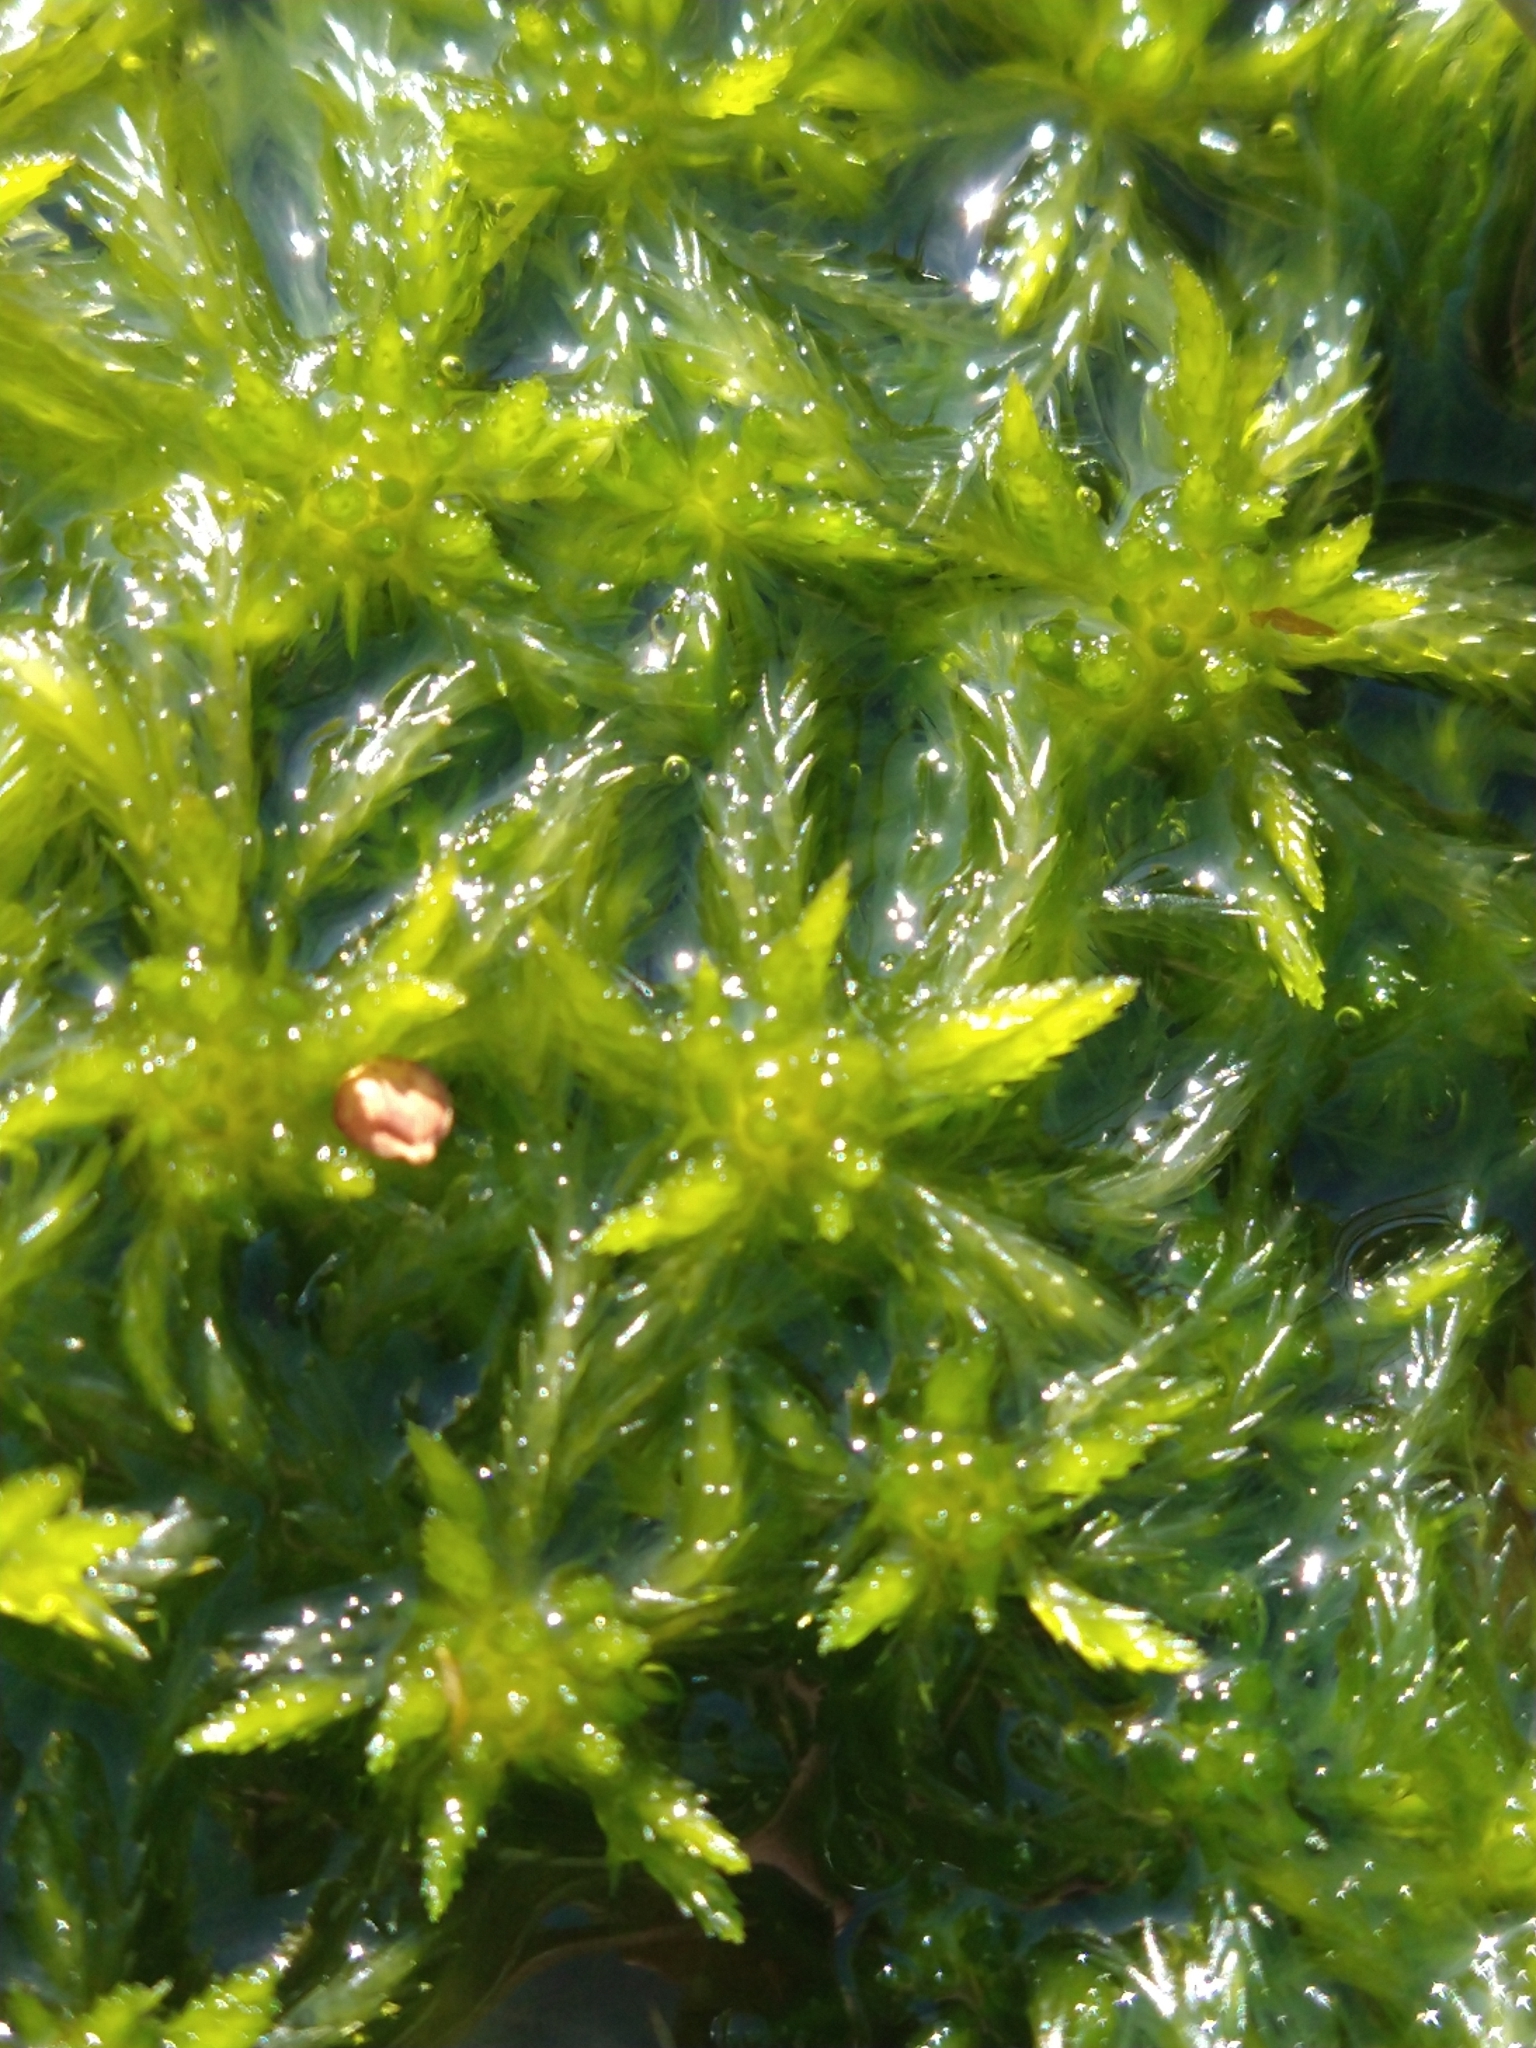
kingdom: Plantae
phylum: Bryophyta
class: Sphagnopsida
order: Sphagnales
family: Sphagnaceae
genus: Sphagnum
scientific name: Sphagnum falcatulum
